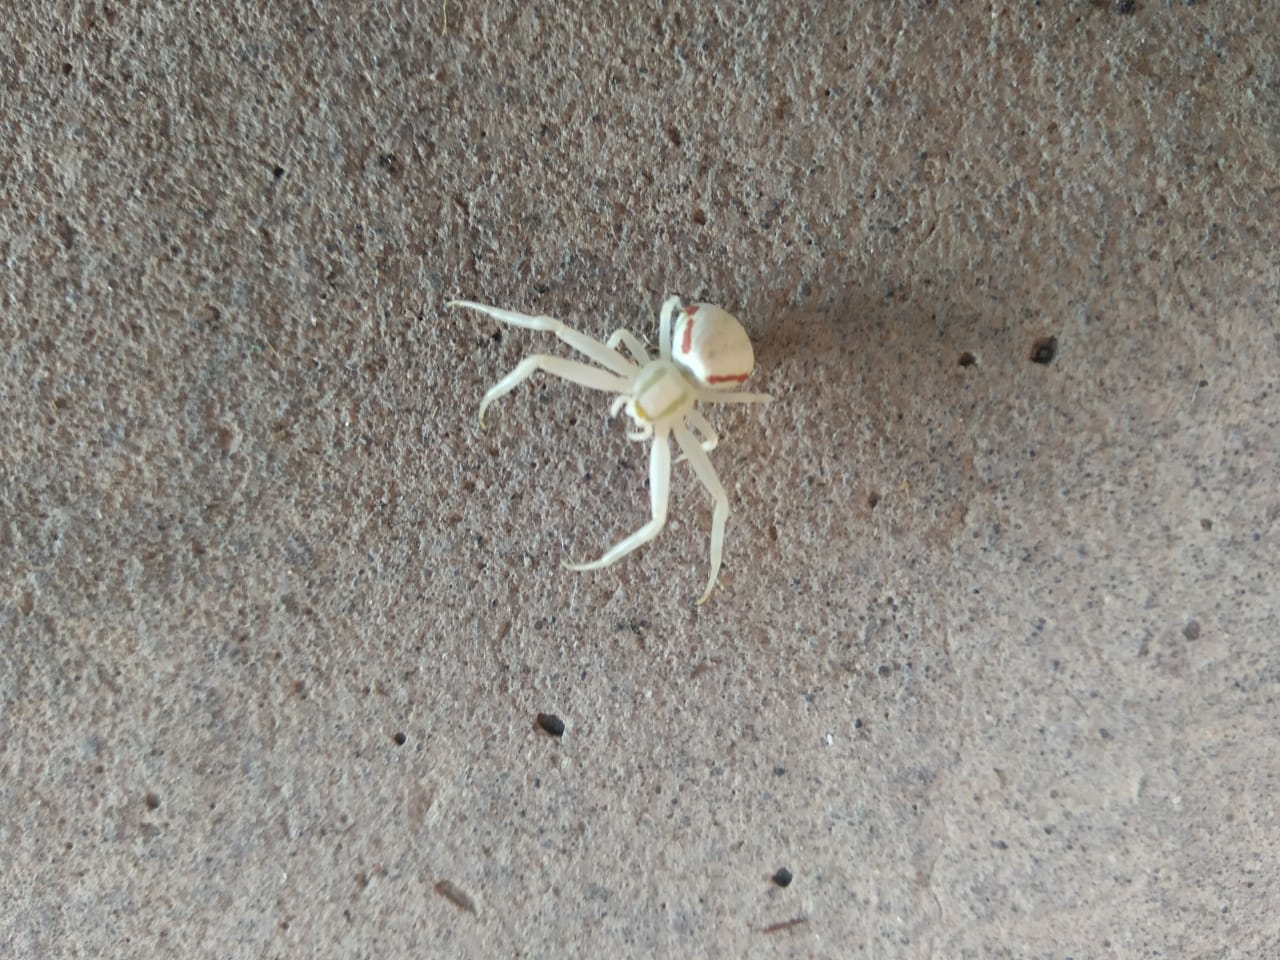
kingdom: Animalia
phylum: Arthropoda
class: Arachnida
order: Araneae
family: Thomisidae
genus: Misumena
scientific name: Misumena vatia
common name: Goldenrod crab spider
